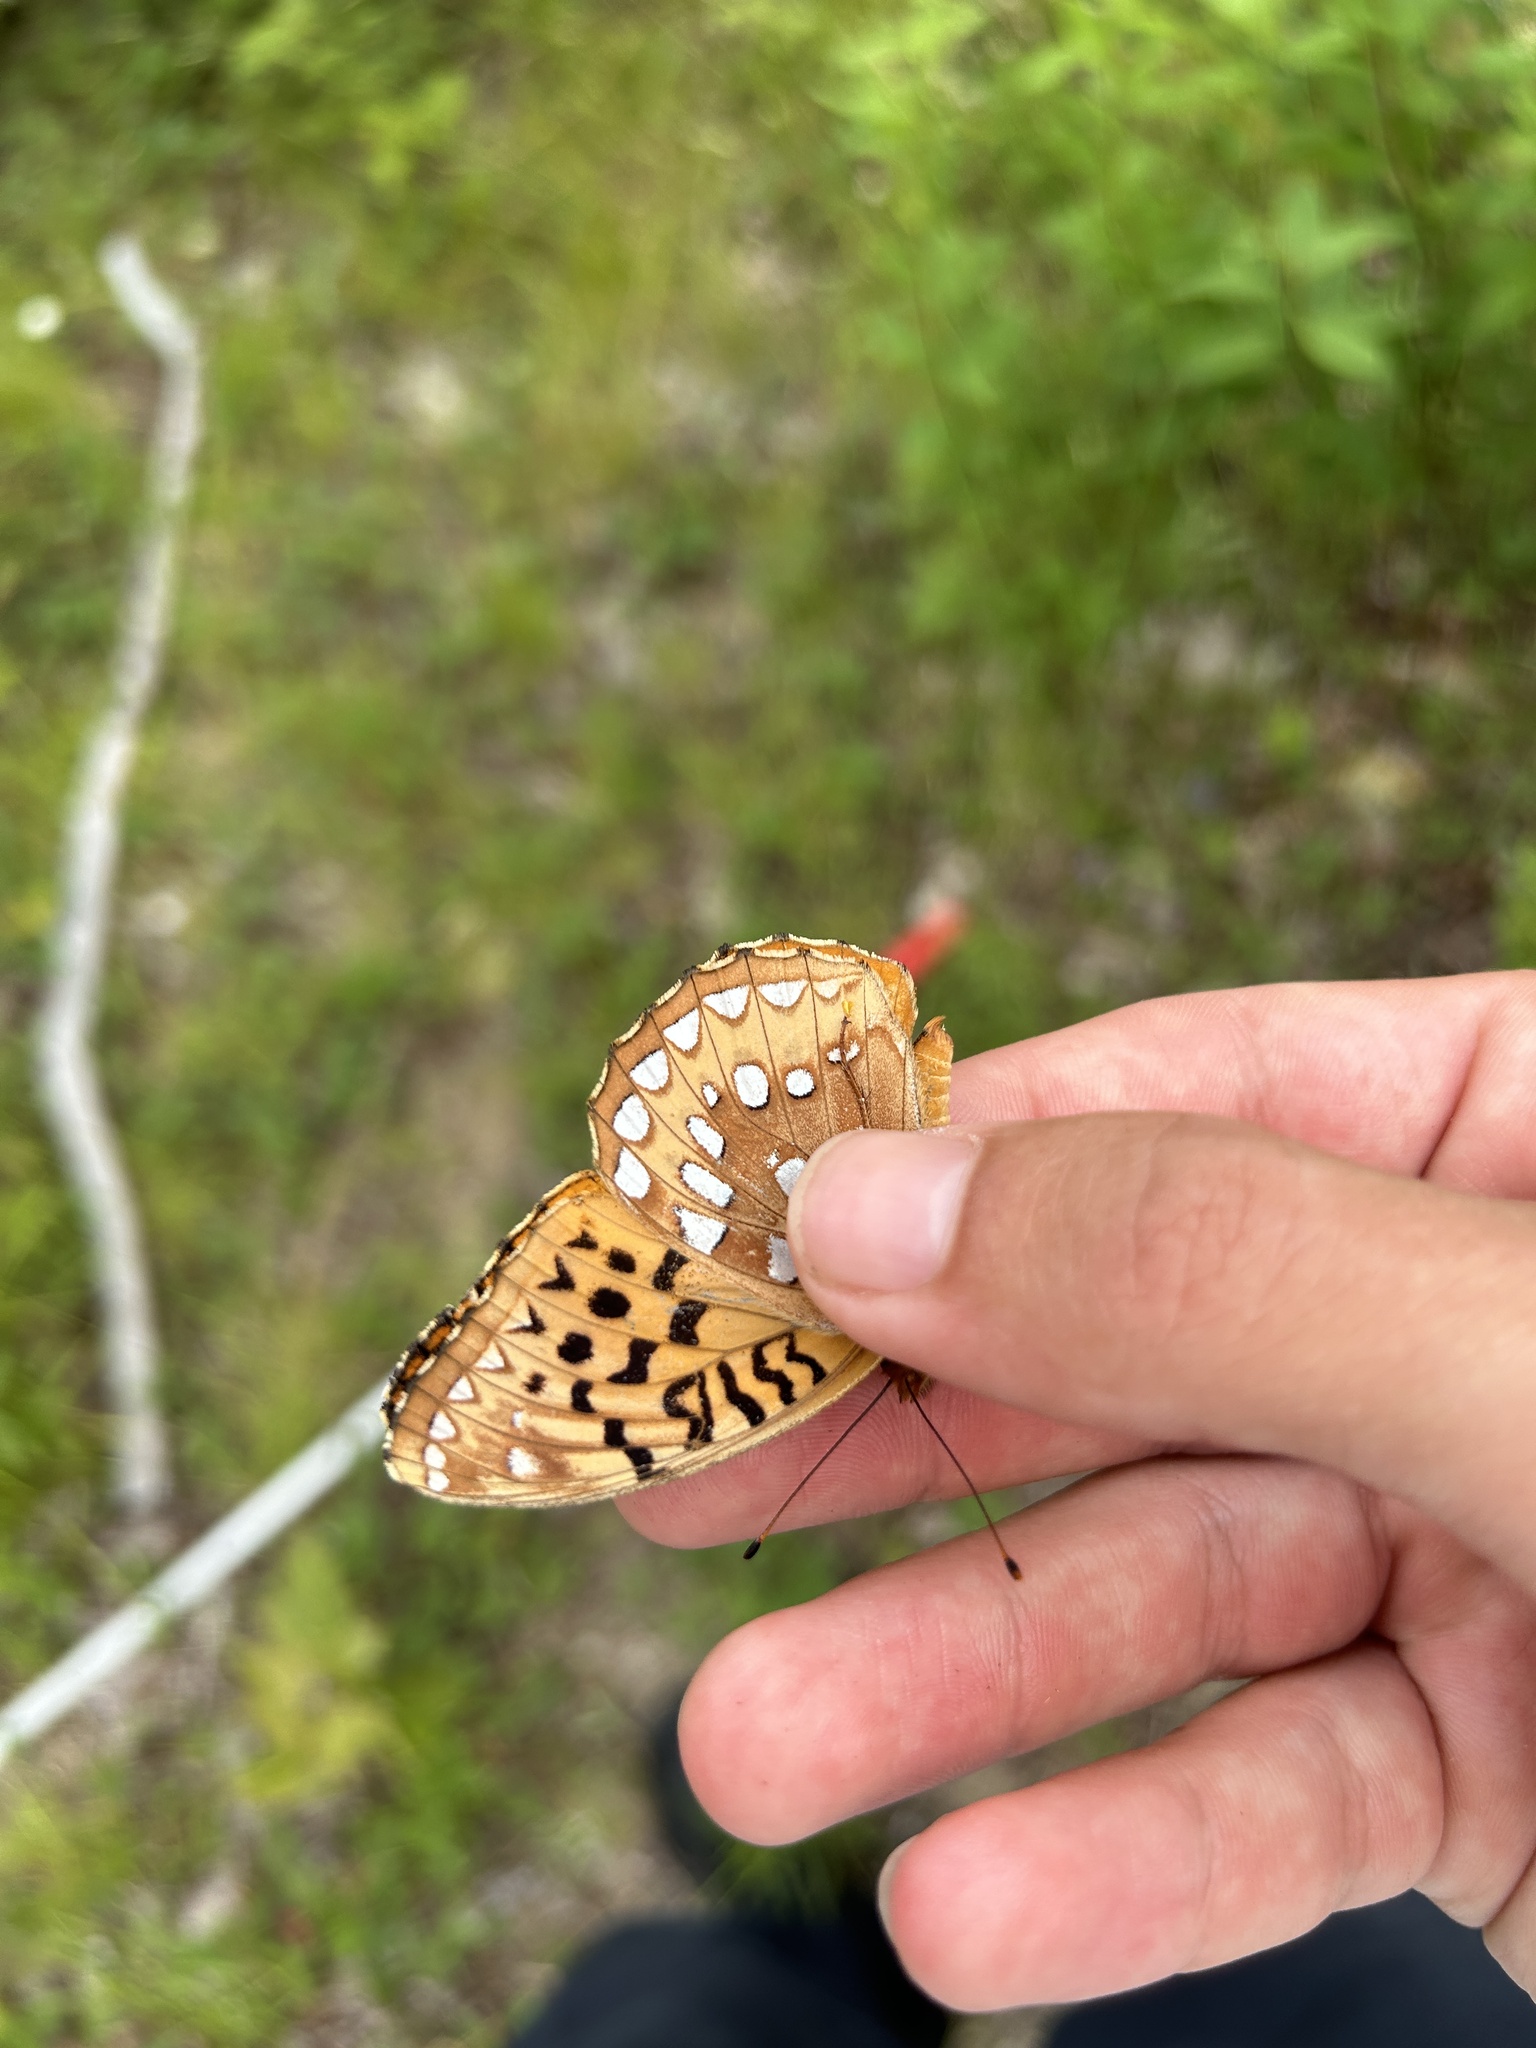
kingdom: Animalia
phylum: Arthropoda
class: Insecta
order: Lepidoptera
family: Nymphalidae
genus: Speyeria
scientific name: Speyeria cybele
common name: Great spangled fritillary
